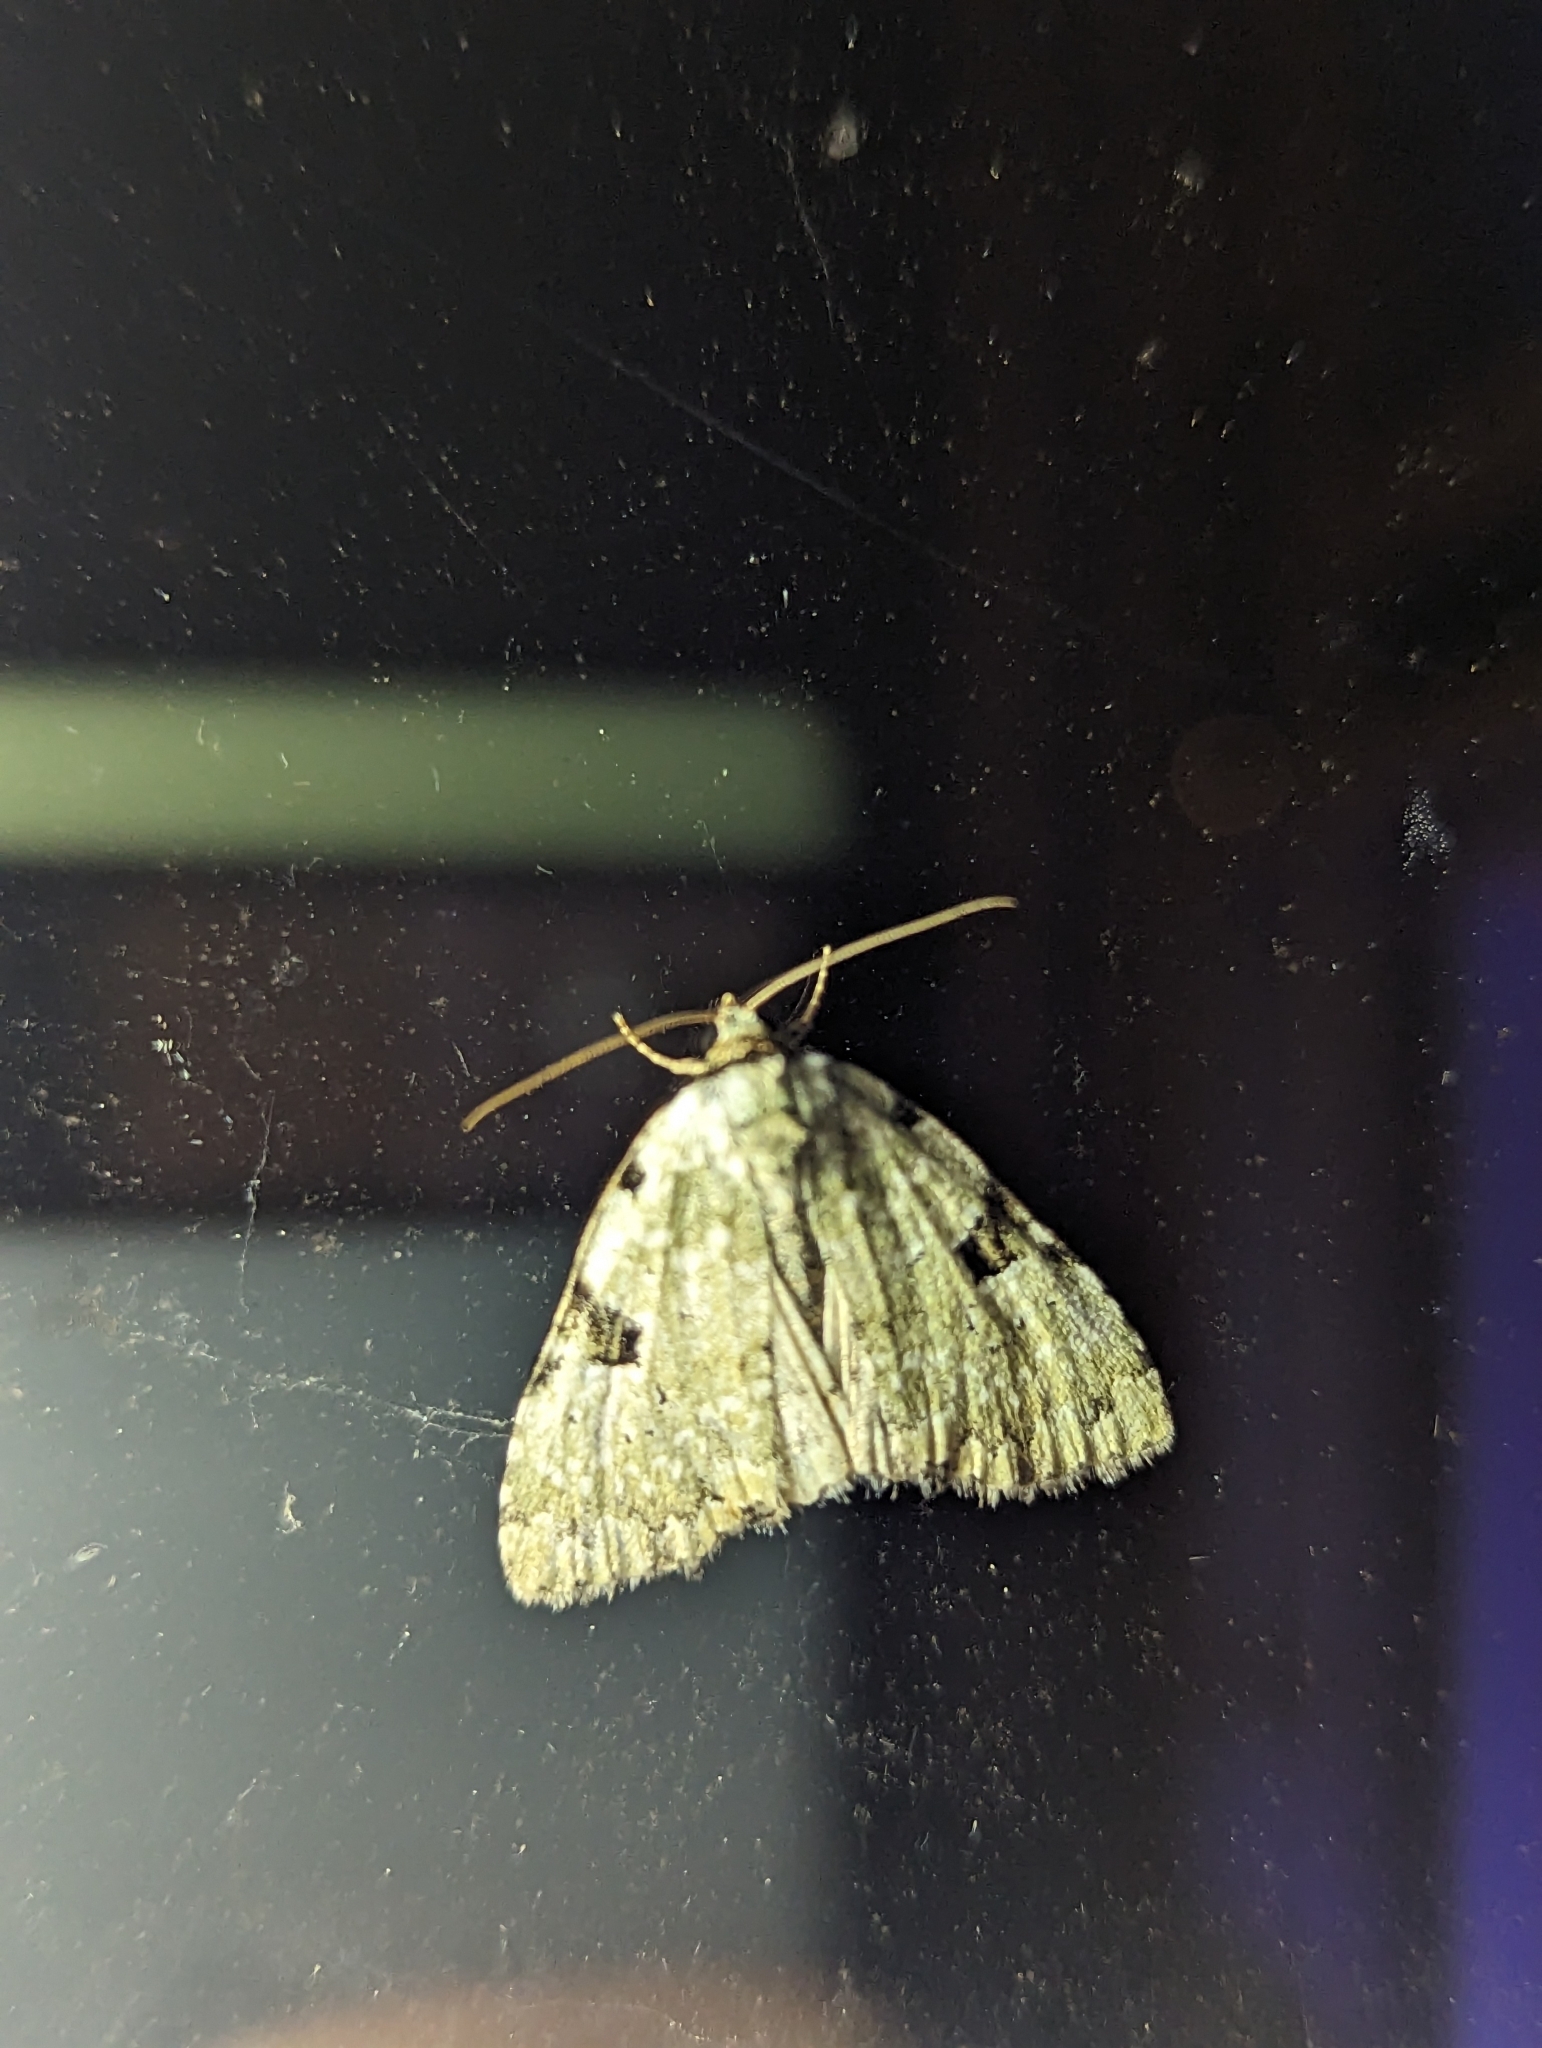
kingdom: Animalia
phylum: Arthropoda
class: Insecta
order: Lepidoptera
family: Noctuidae
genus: Leuconycta
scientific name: Leuconycta diphteroides
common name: Green leuconycta moth
